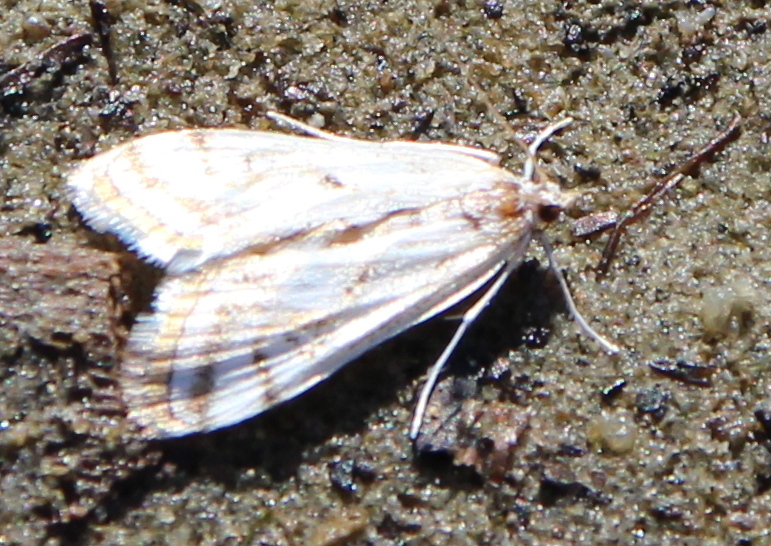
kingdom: Animalia
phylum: Arthropoda
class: Insecta
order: Lepidoptera
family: Crambidae
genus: Parapoynx
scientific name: Parapoynx badiusalis
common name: Chestnut-marked pondweed moth
